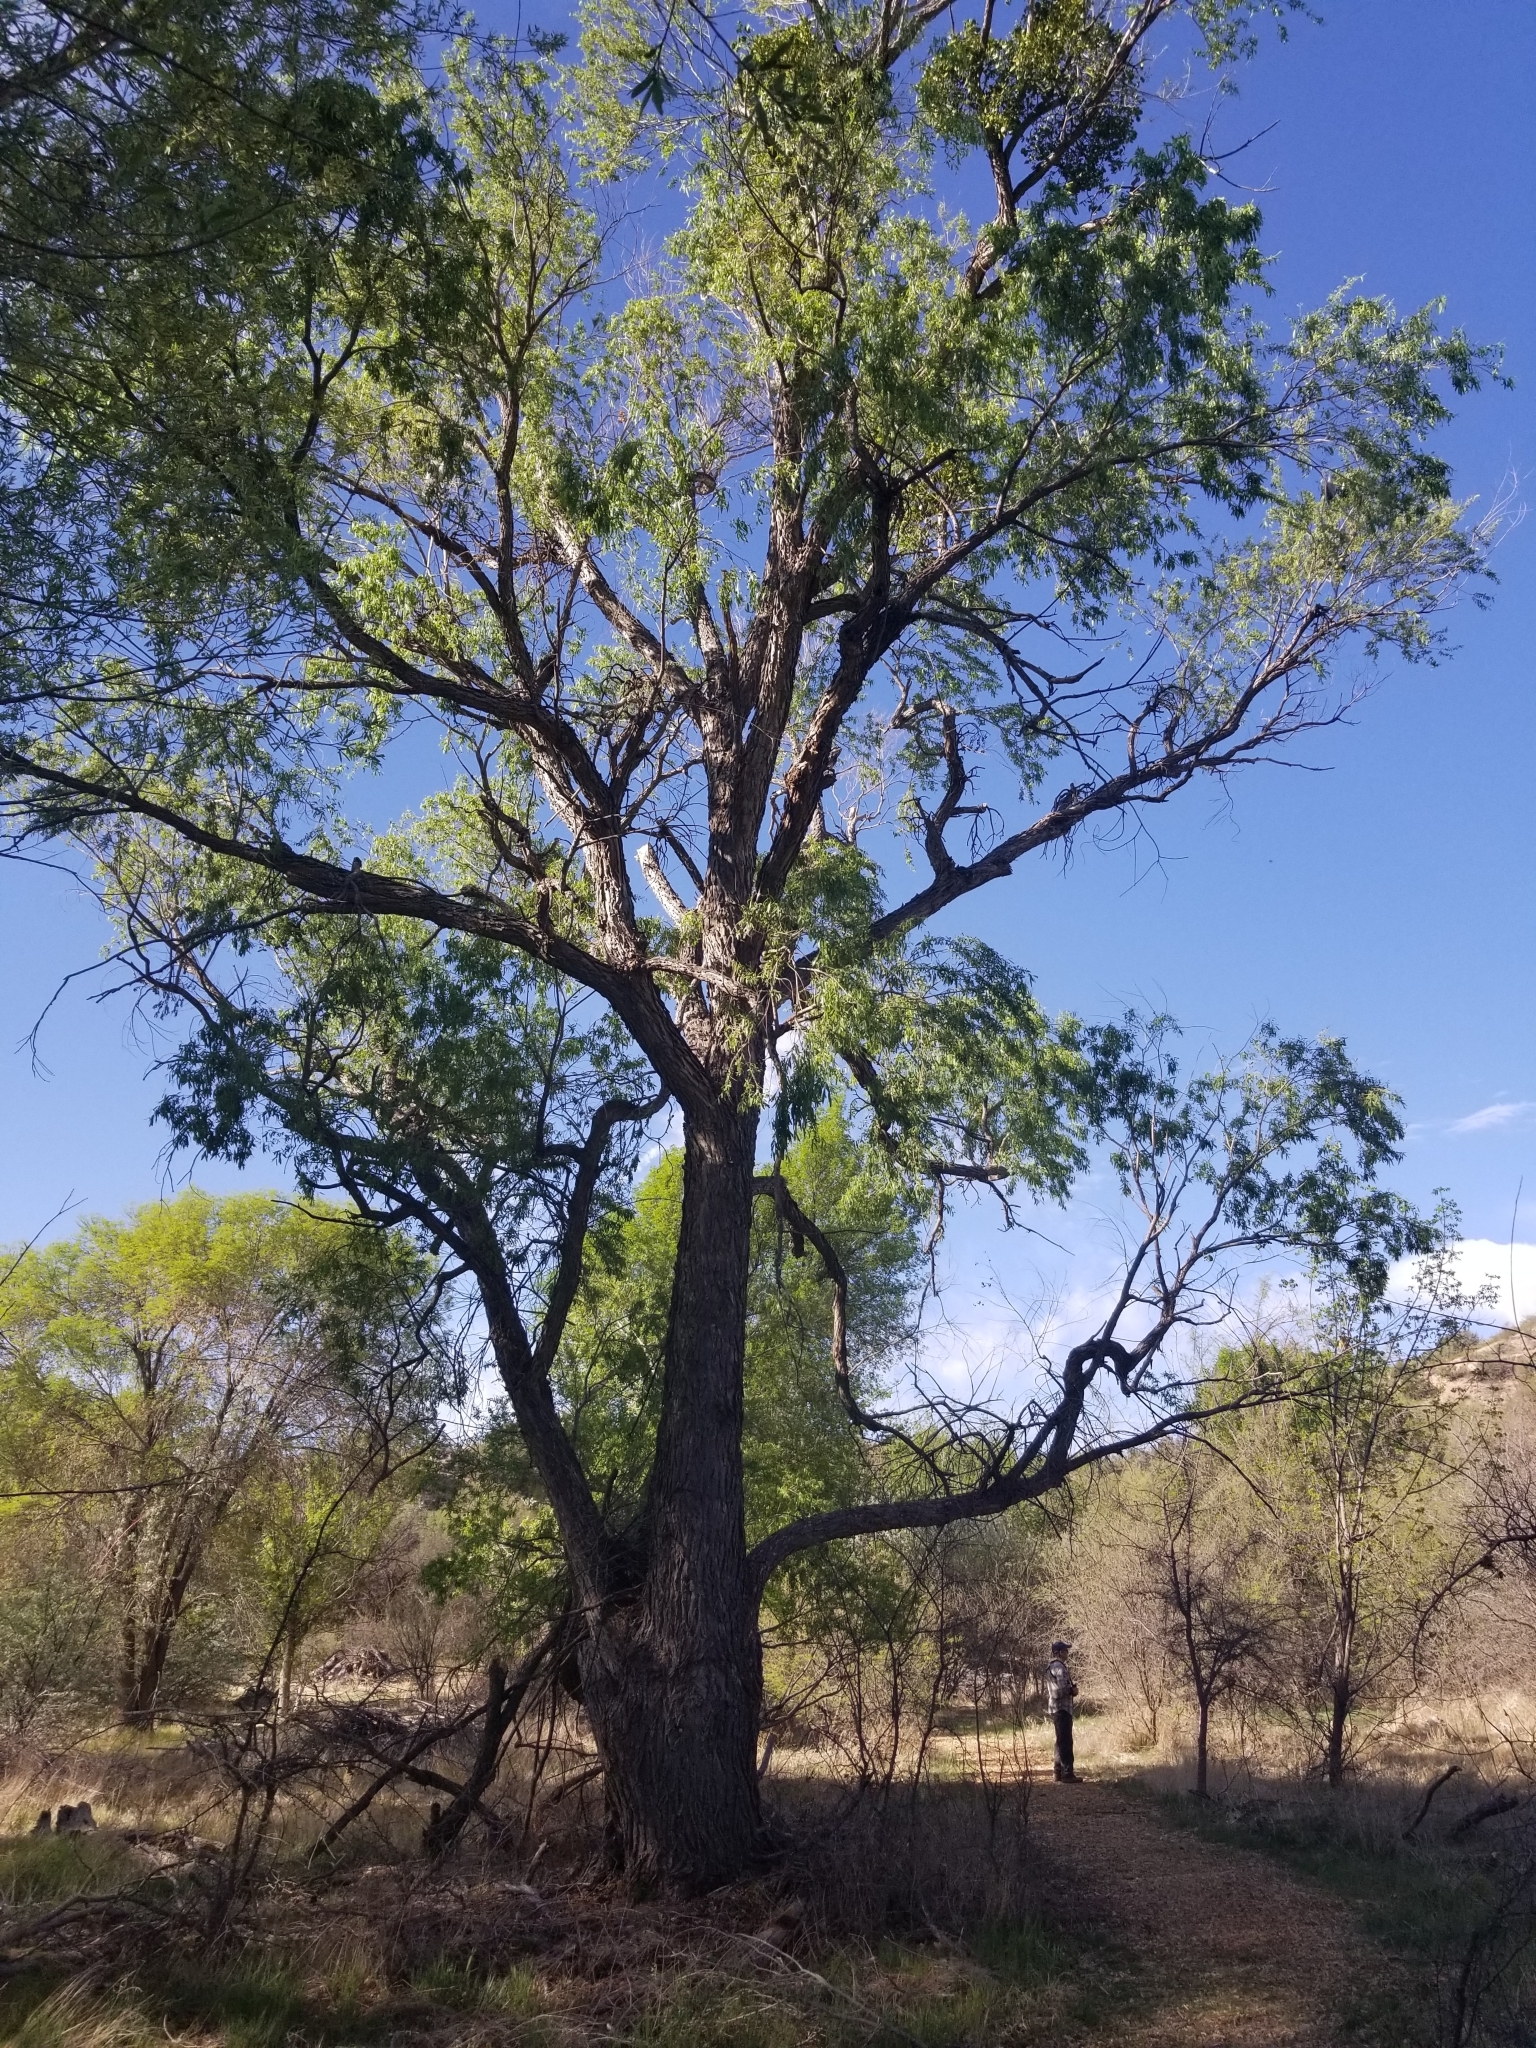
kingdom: Plantae
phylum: Tracheophyta
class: Magnoliopsida
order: Malpighiales
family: Salicaceae
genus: Populus
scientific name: Populus fremontii
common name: Fremont's cottonwood
